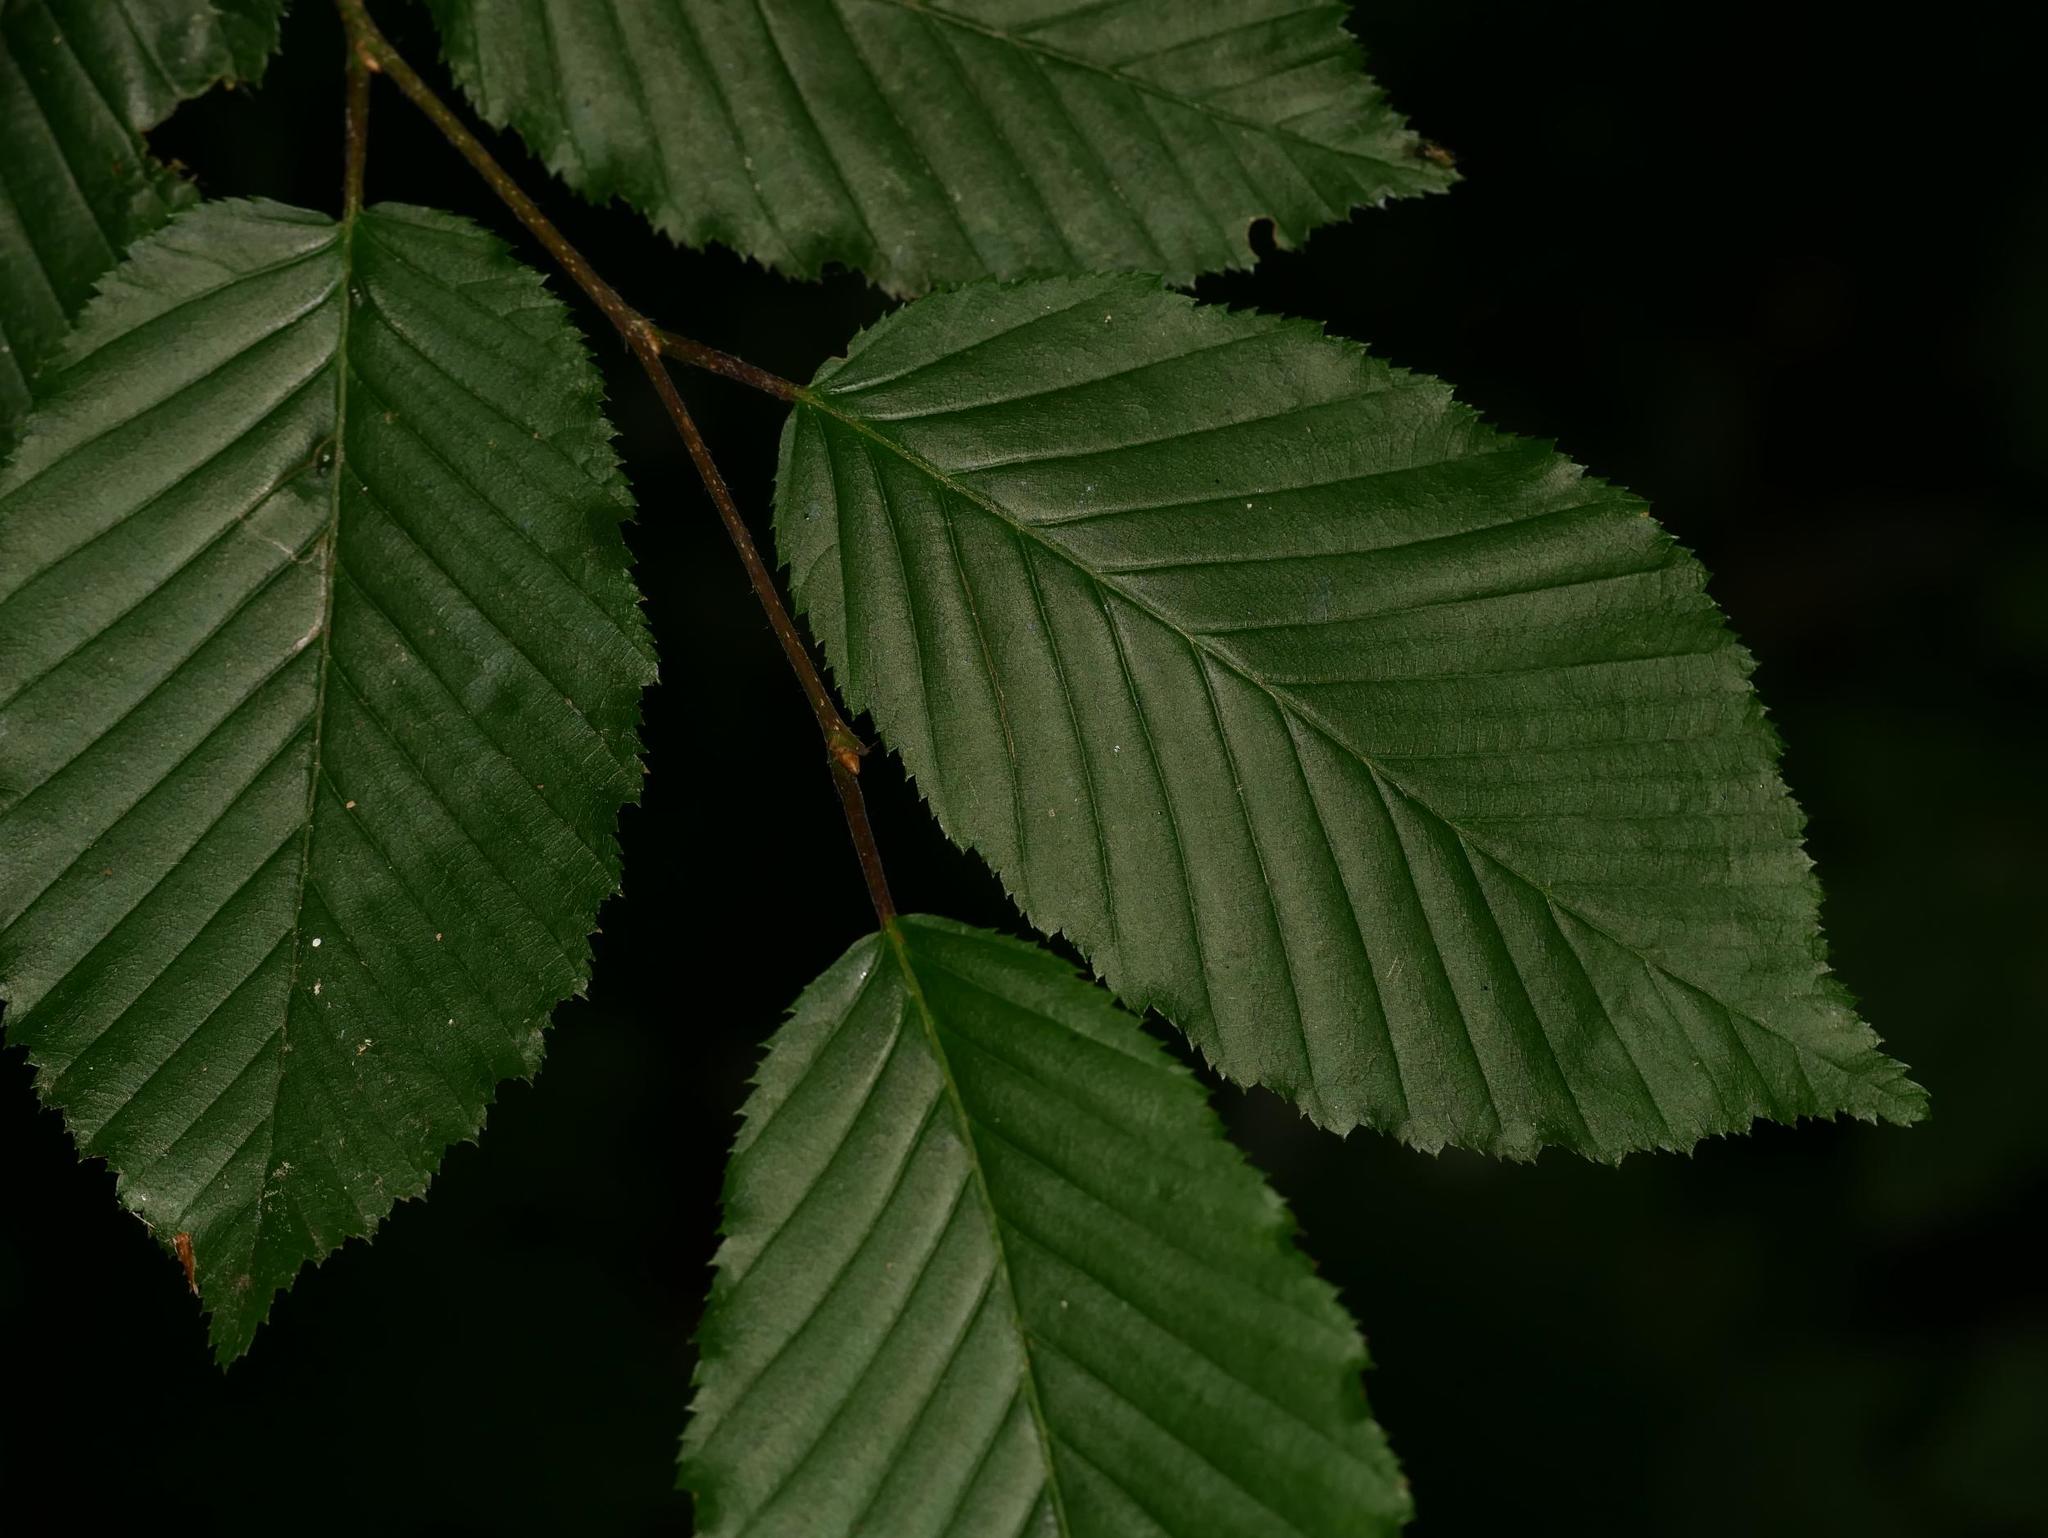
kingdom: Plantae
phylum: Tracheophyta
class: Magnoliopsida
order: Fagales
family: Betulaceae
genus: Carpinus
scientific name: Carpinus betulus
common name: Hornbeam
